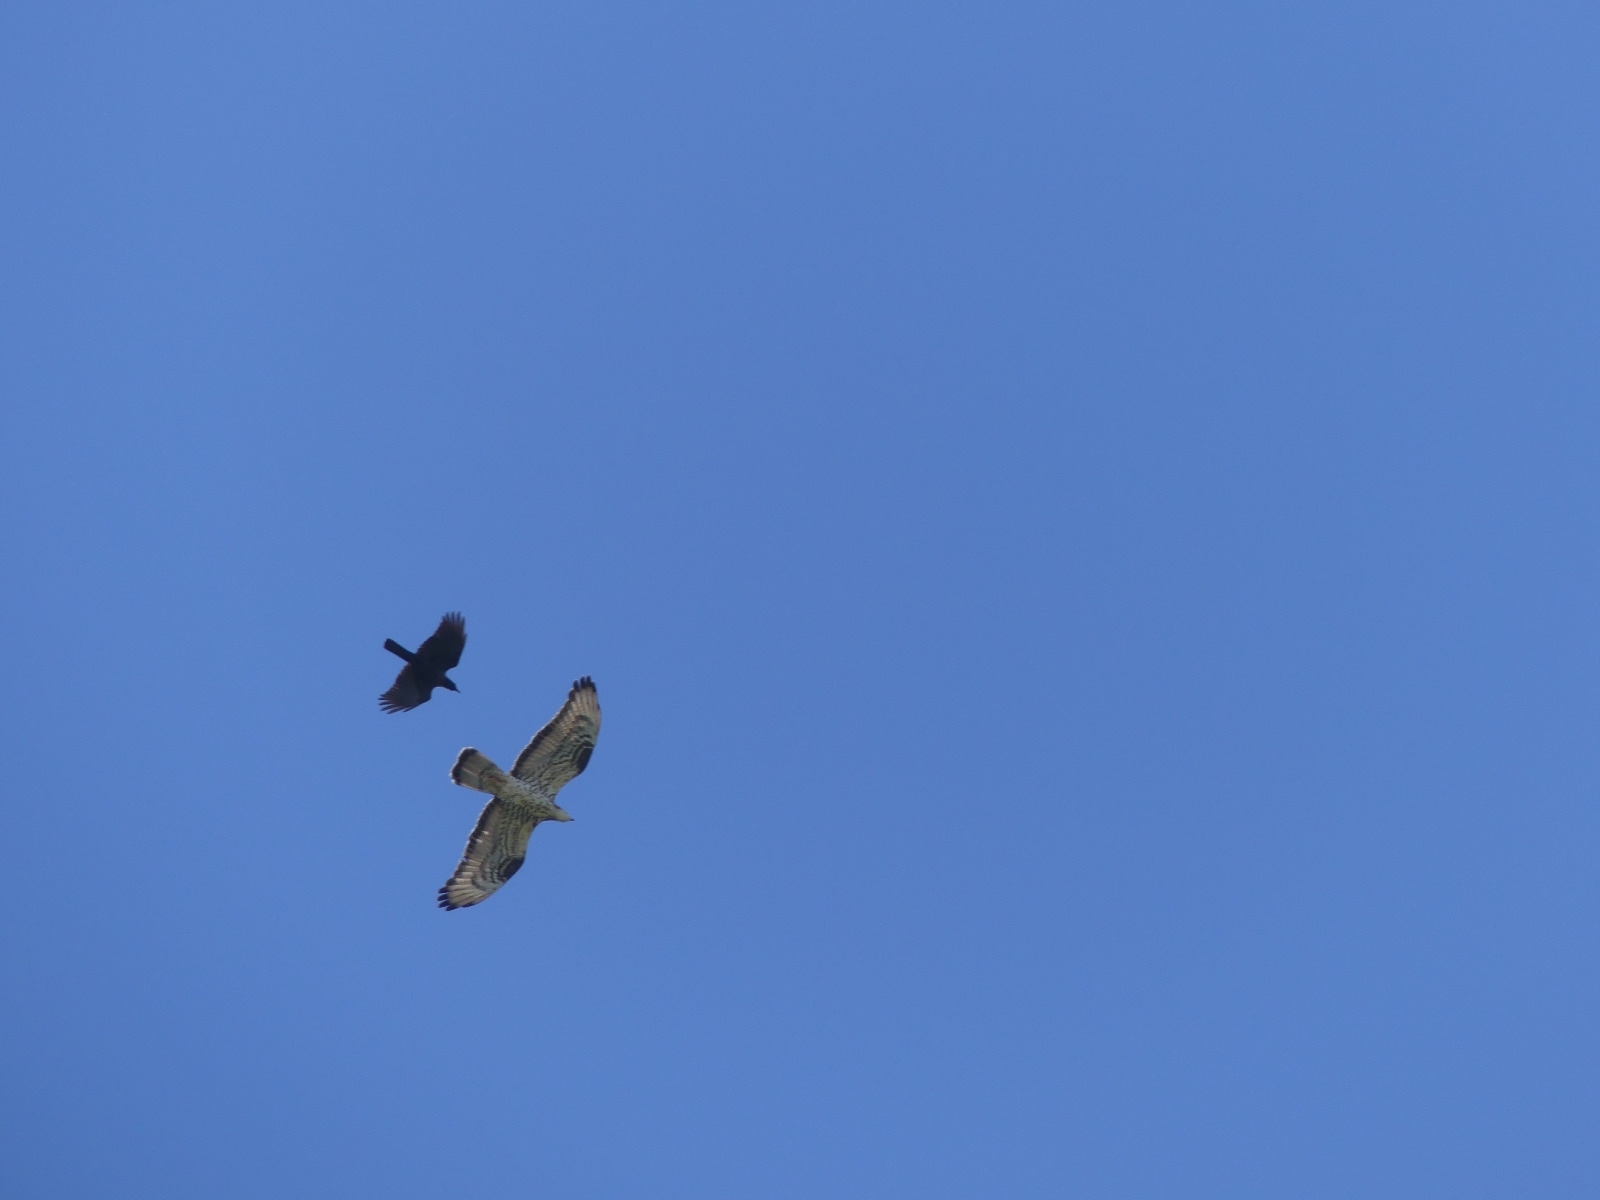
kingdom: Animalia
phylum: Chordata
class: Aves
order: Accipitriformes
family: Accipitridae
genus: Pernis
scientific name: Pernis apivorus
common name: European honey buzzard
